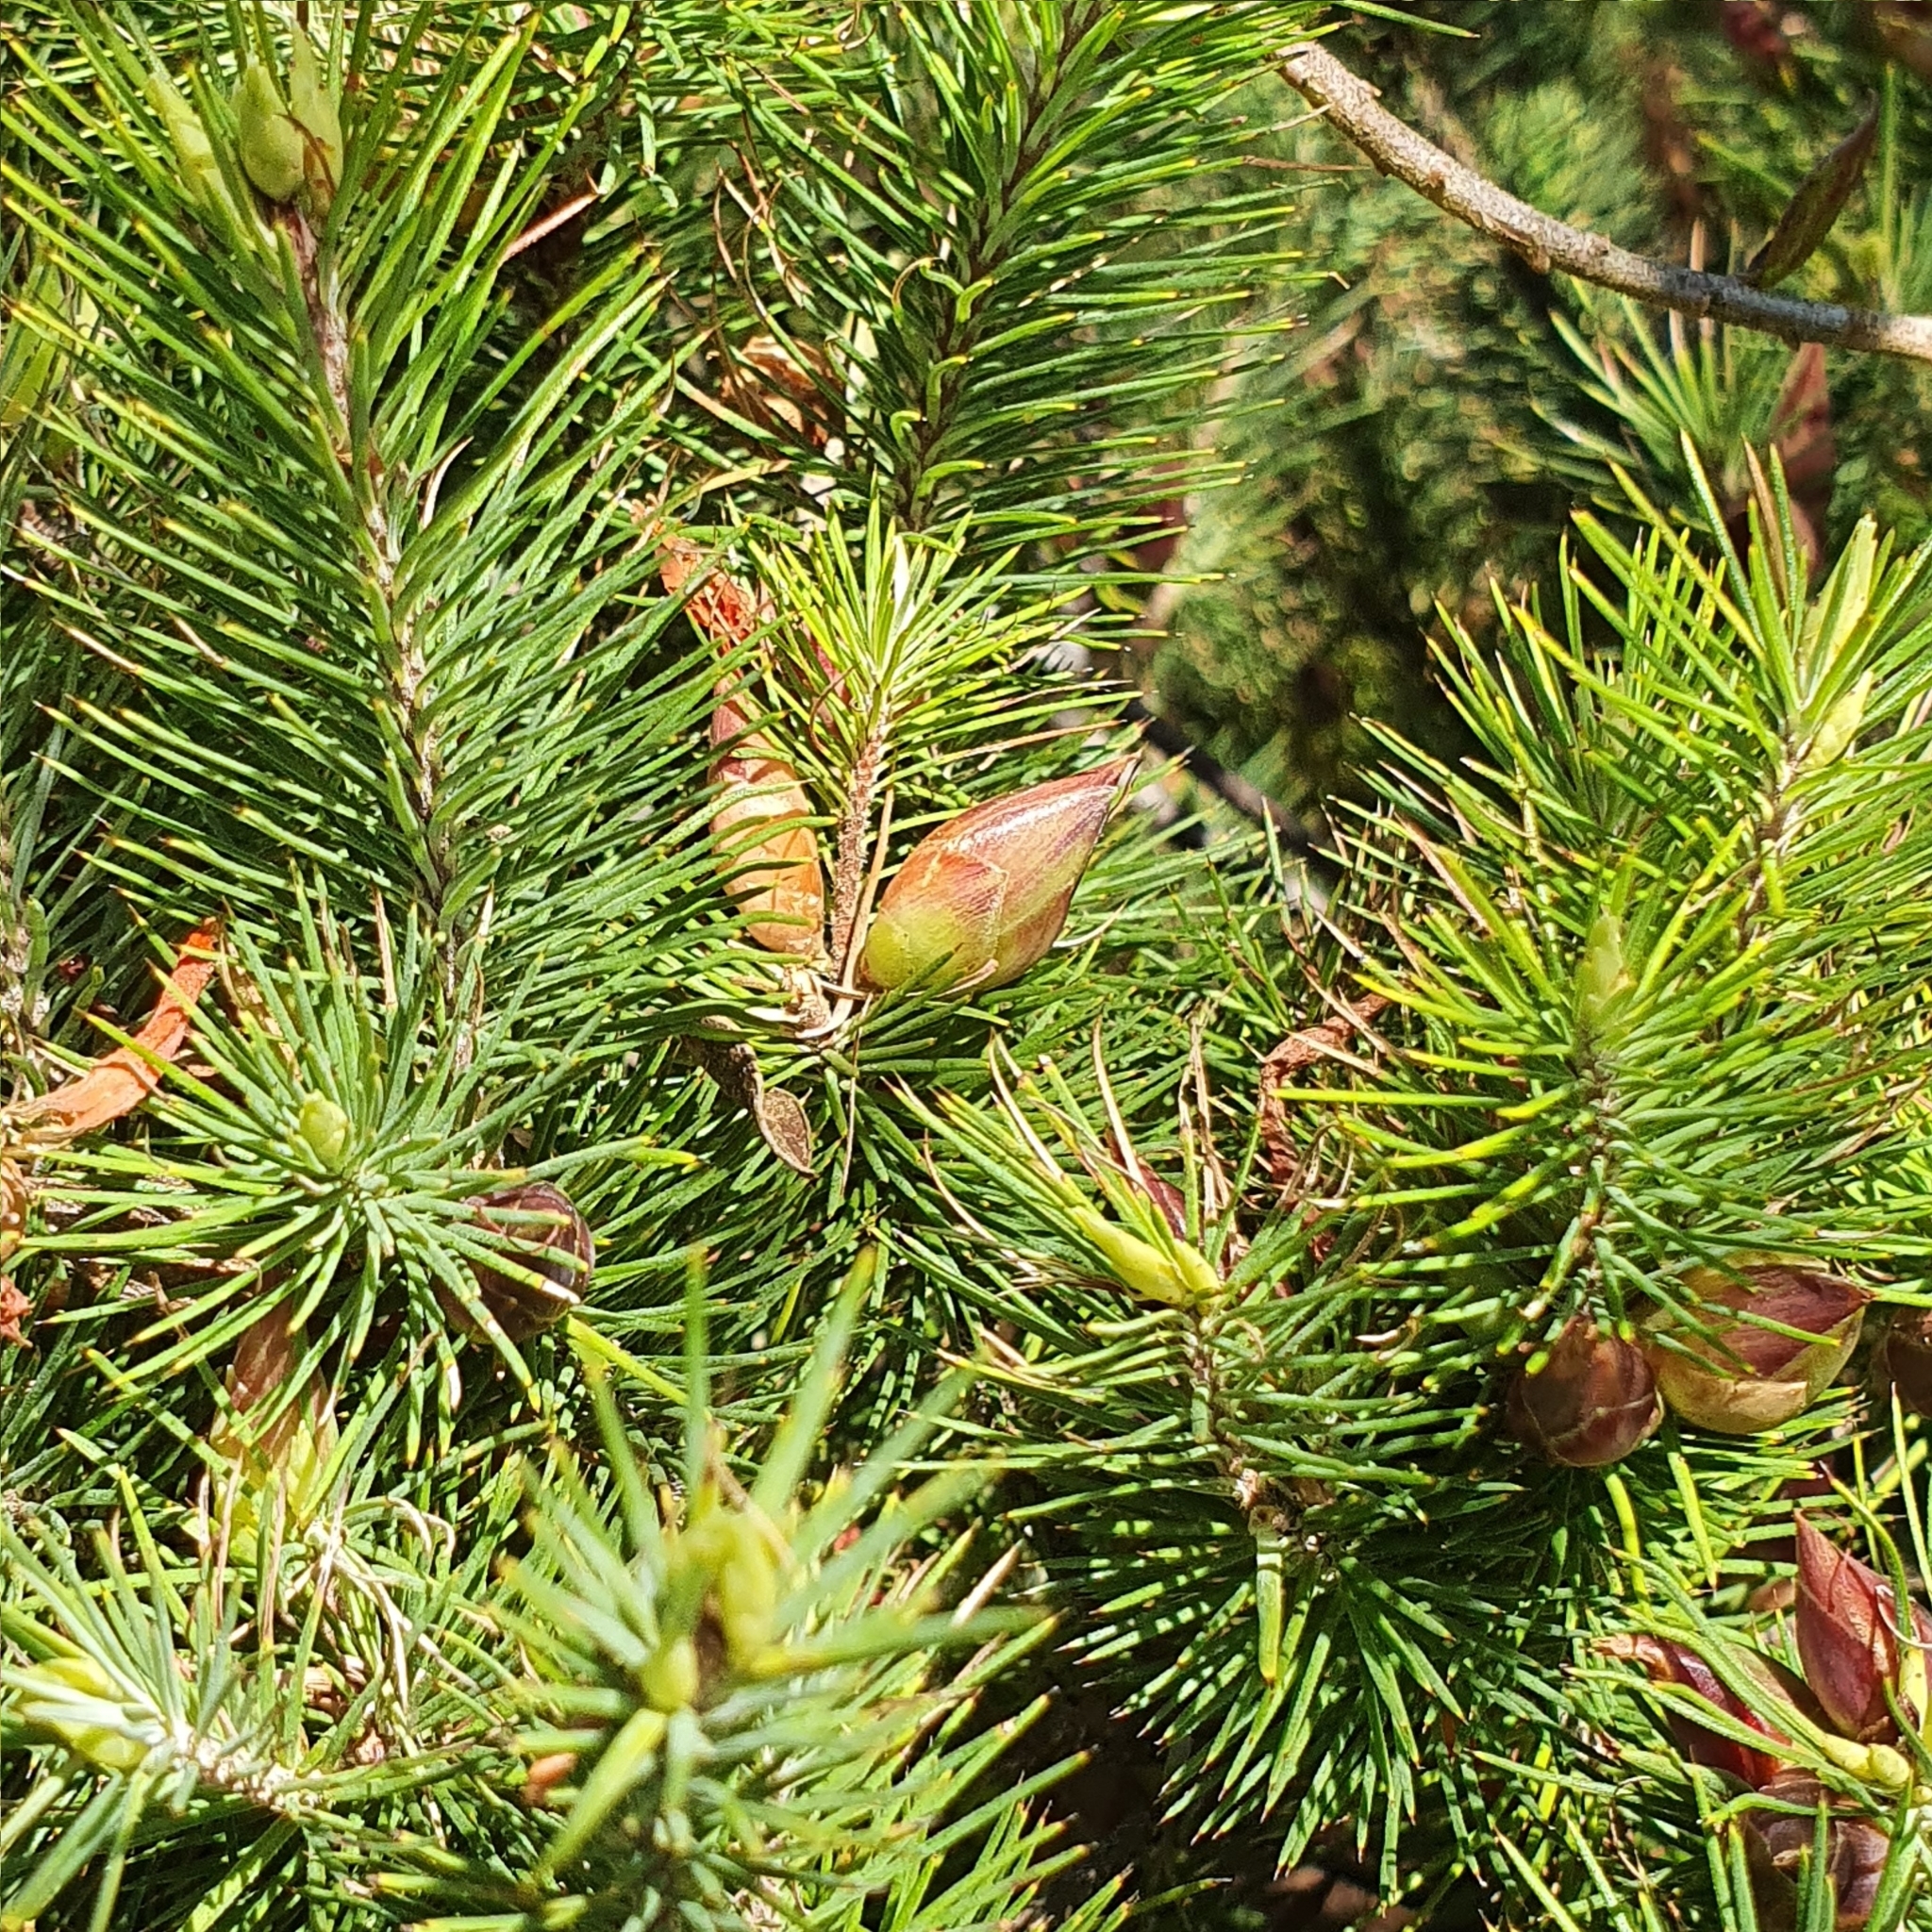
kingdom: Plantae
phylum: Tracheophyta
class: Magnoliopsida
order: Ericales
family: Ericaceae
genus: Stenanthera
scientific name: Stenanthera pinifolia
